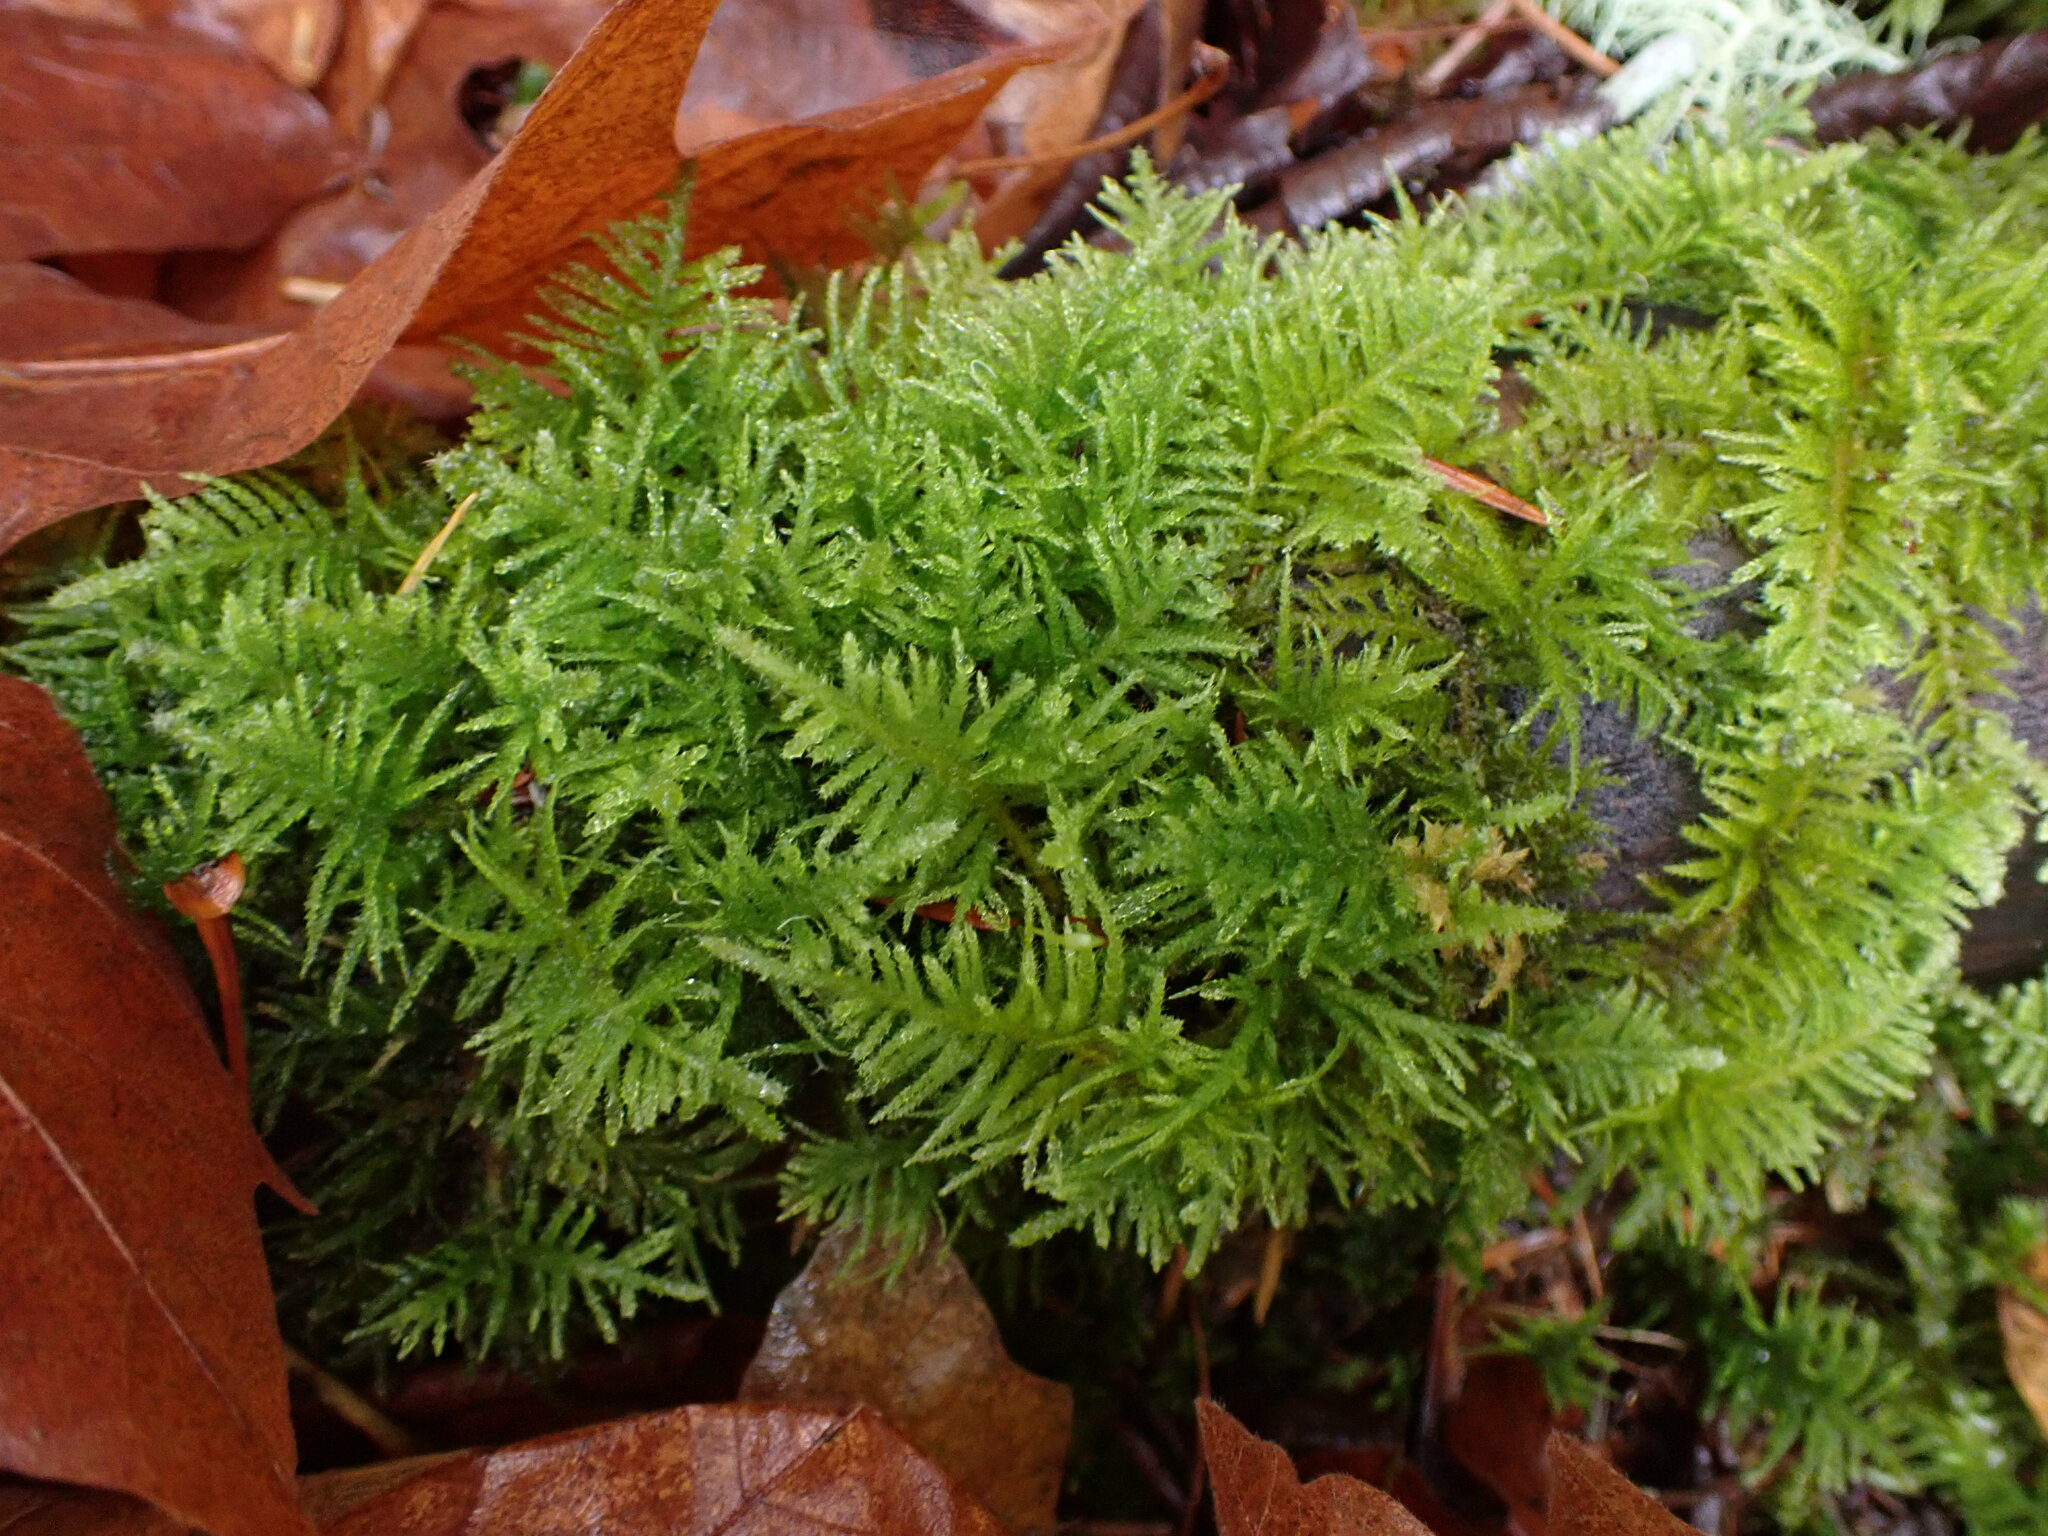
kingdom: Plantae
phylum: Bryophyta
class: Bryopsida
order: Hypnales
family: Brachytheciaceae
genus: Kindbergia
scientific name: Kindbergia oregana
